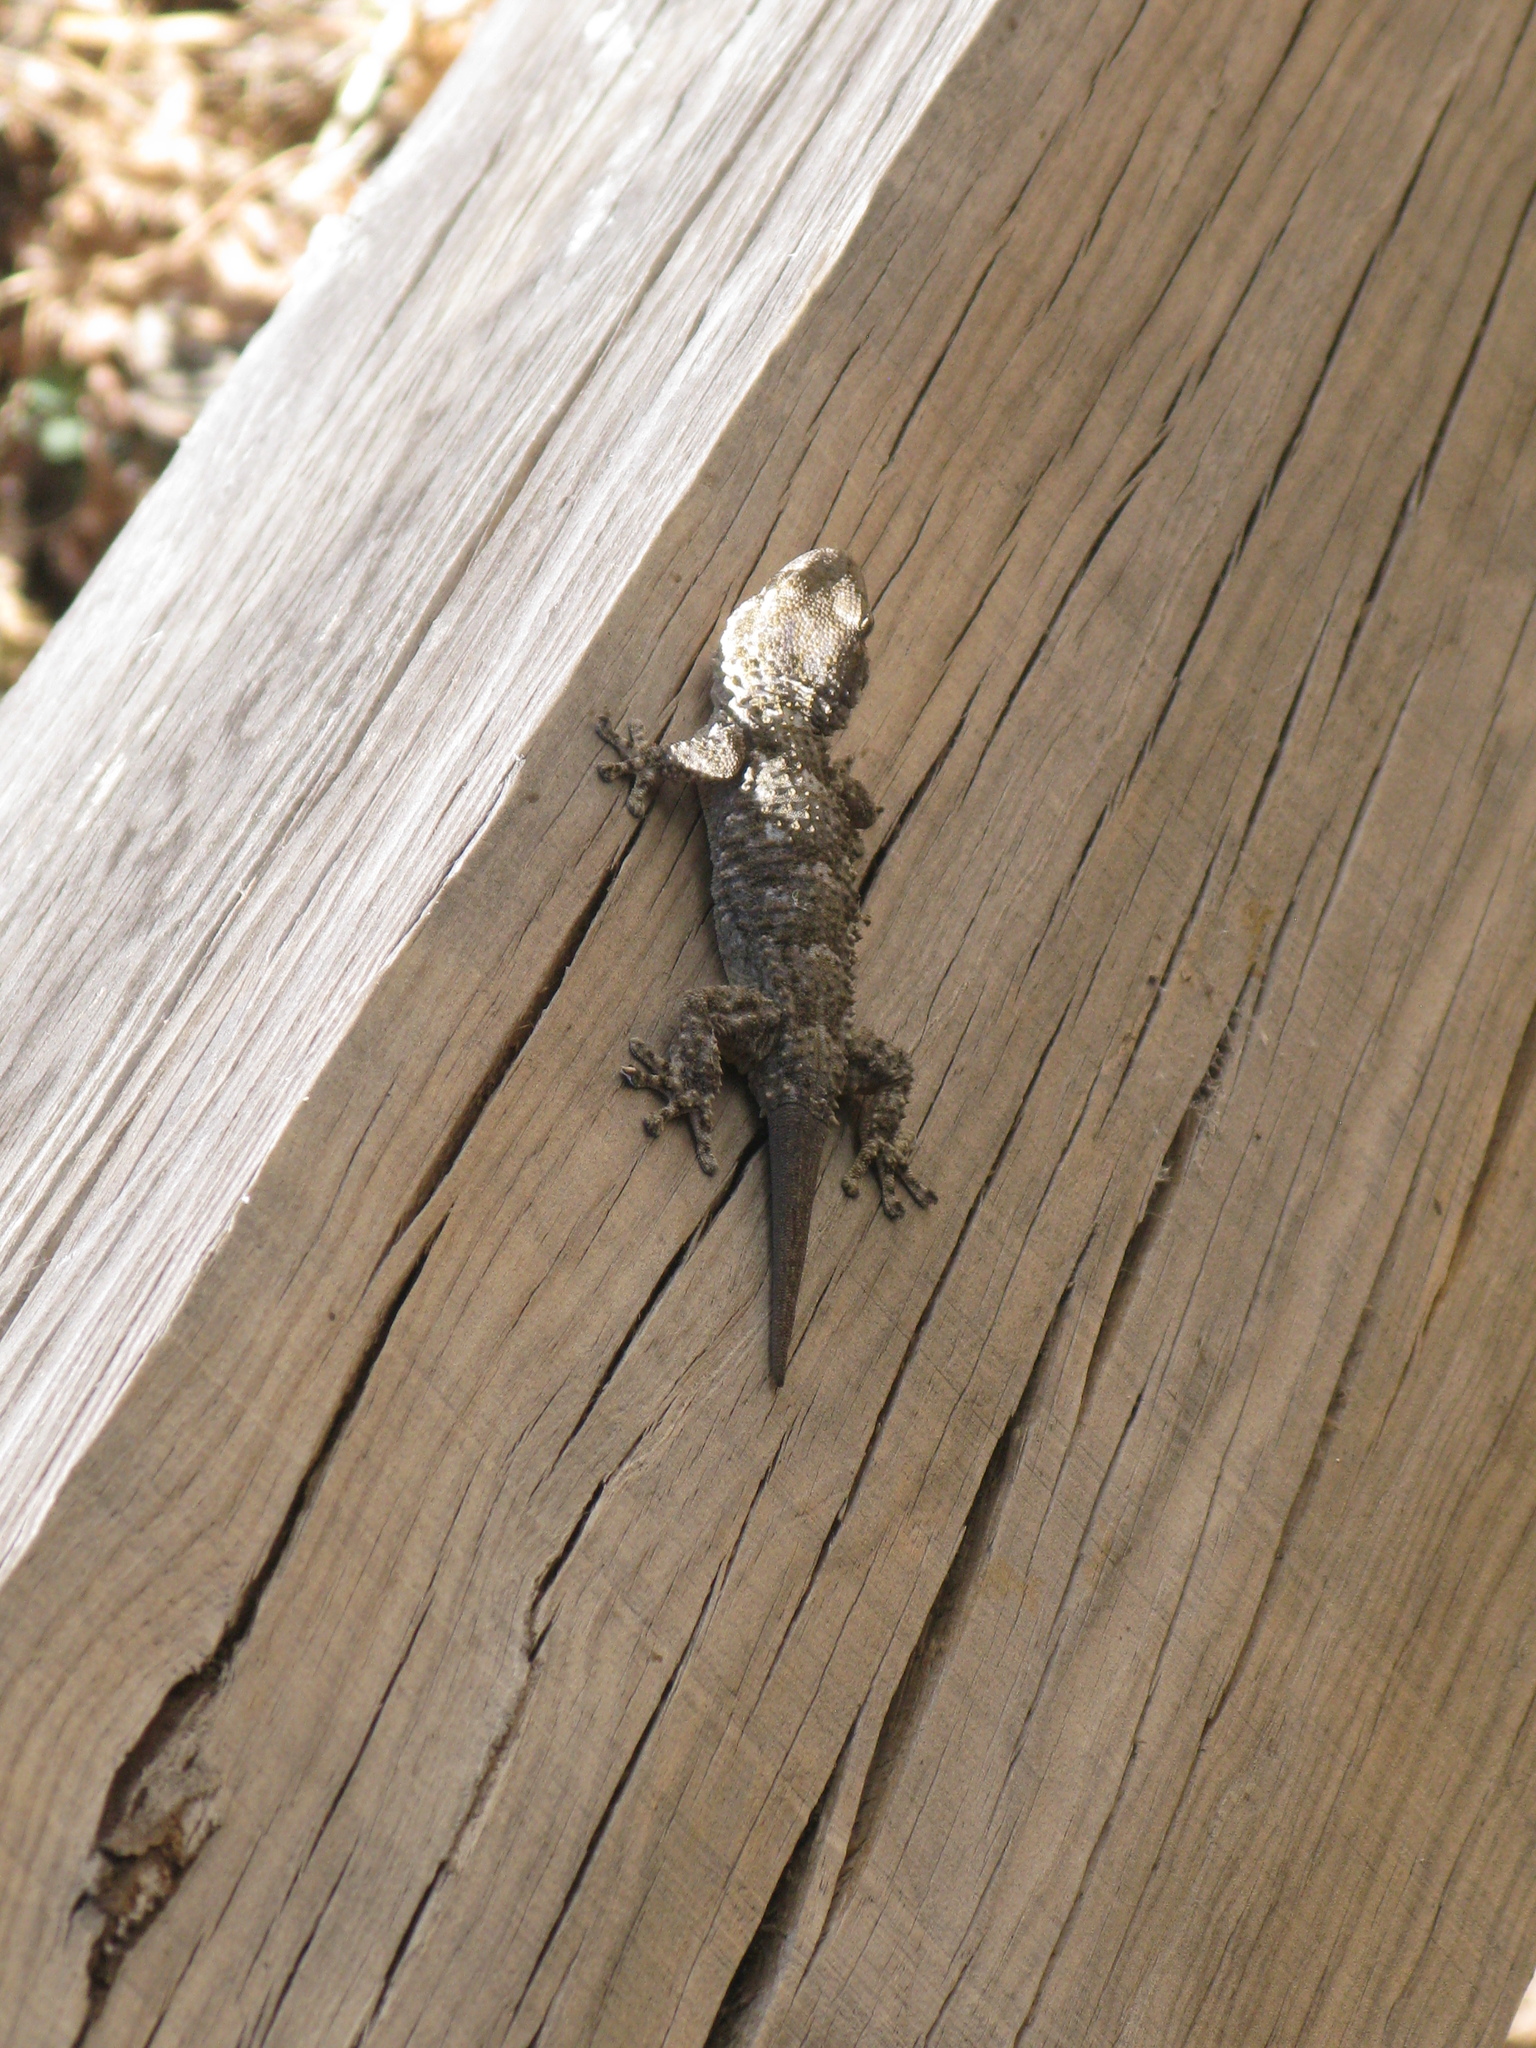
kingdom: Animalia
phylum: Chordata
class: Squamata
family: Phyllodactylidae
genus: Tarentola
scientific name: Tarentola mauritanica
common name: Moorish gecko
